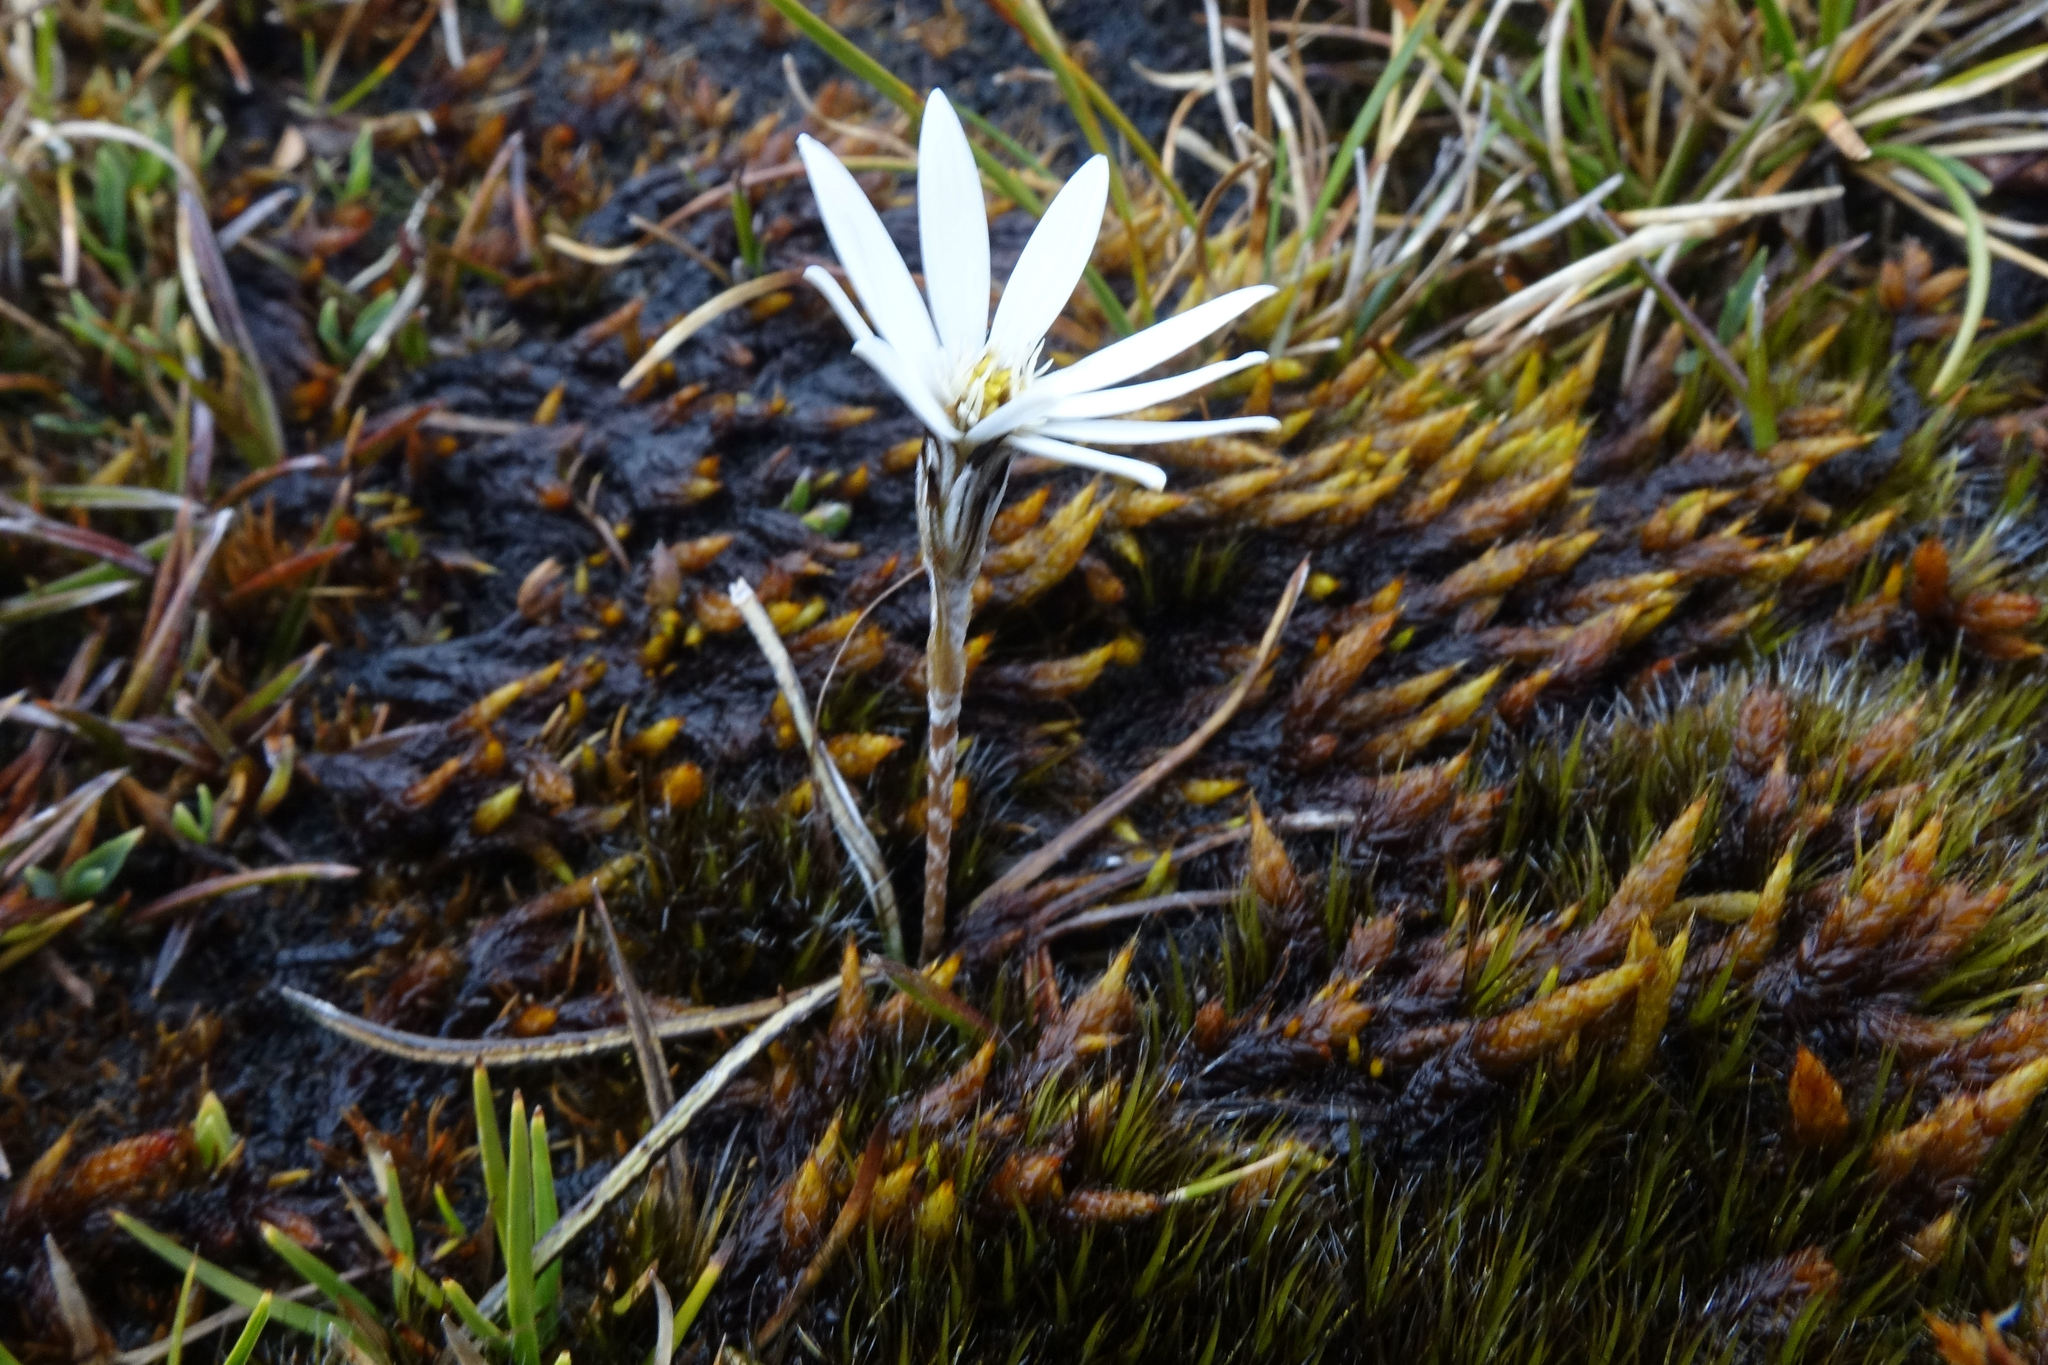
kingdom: Plantae
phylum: Tracheophyta
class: Magnoliopsida
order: Asterales
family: Asteraceae
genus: Celmisia
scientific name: Celmisia alpina
